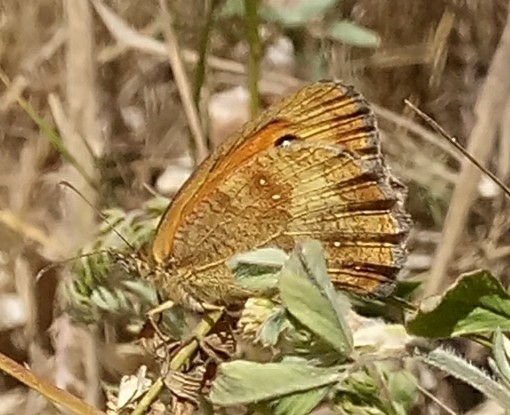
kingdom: Animalia
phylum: Arthropoda
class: Insecta
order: Lepidoptera
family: Nymphalidae
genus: Pyronia
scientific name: Pyronia tithonus
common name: Gatekeeper
